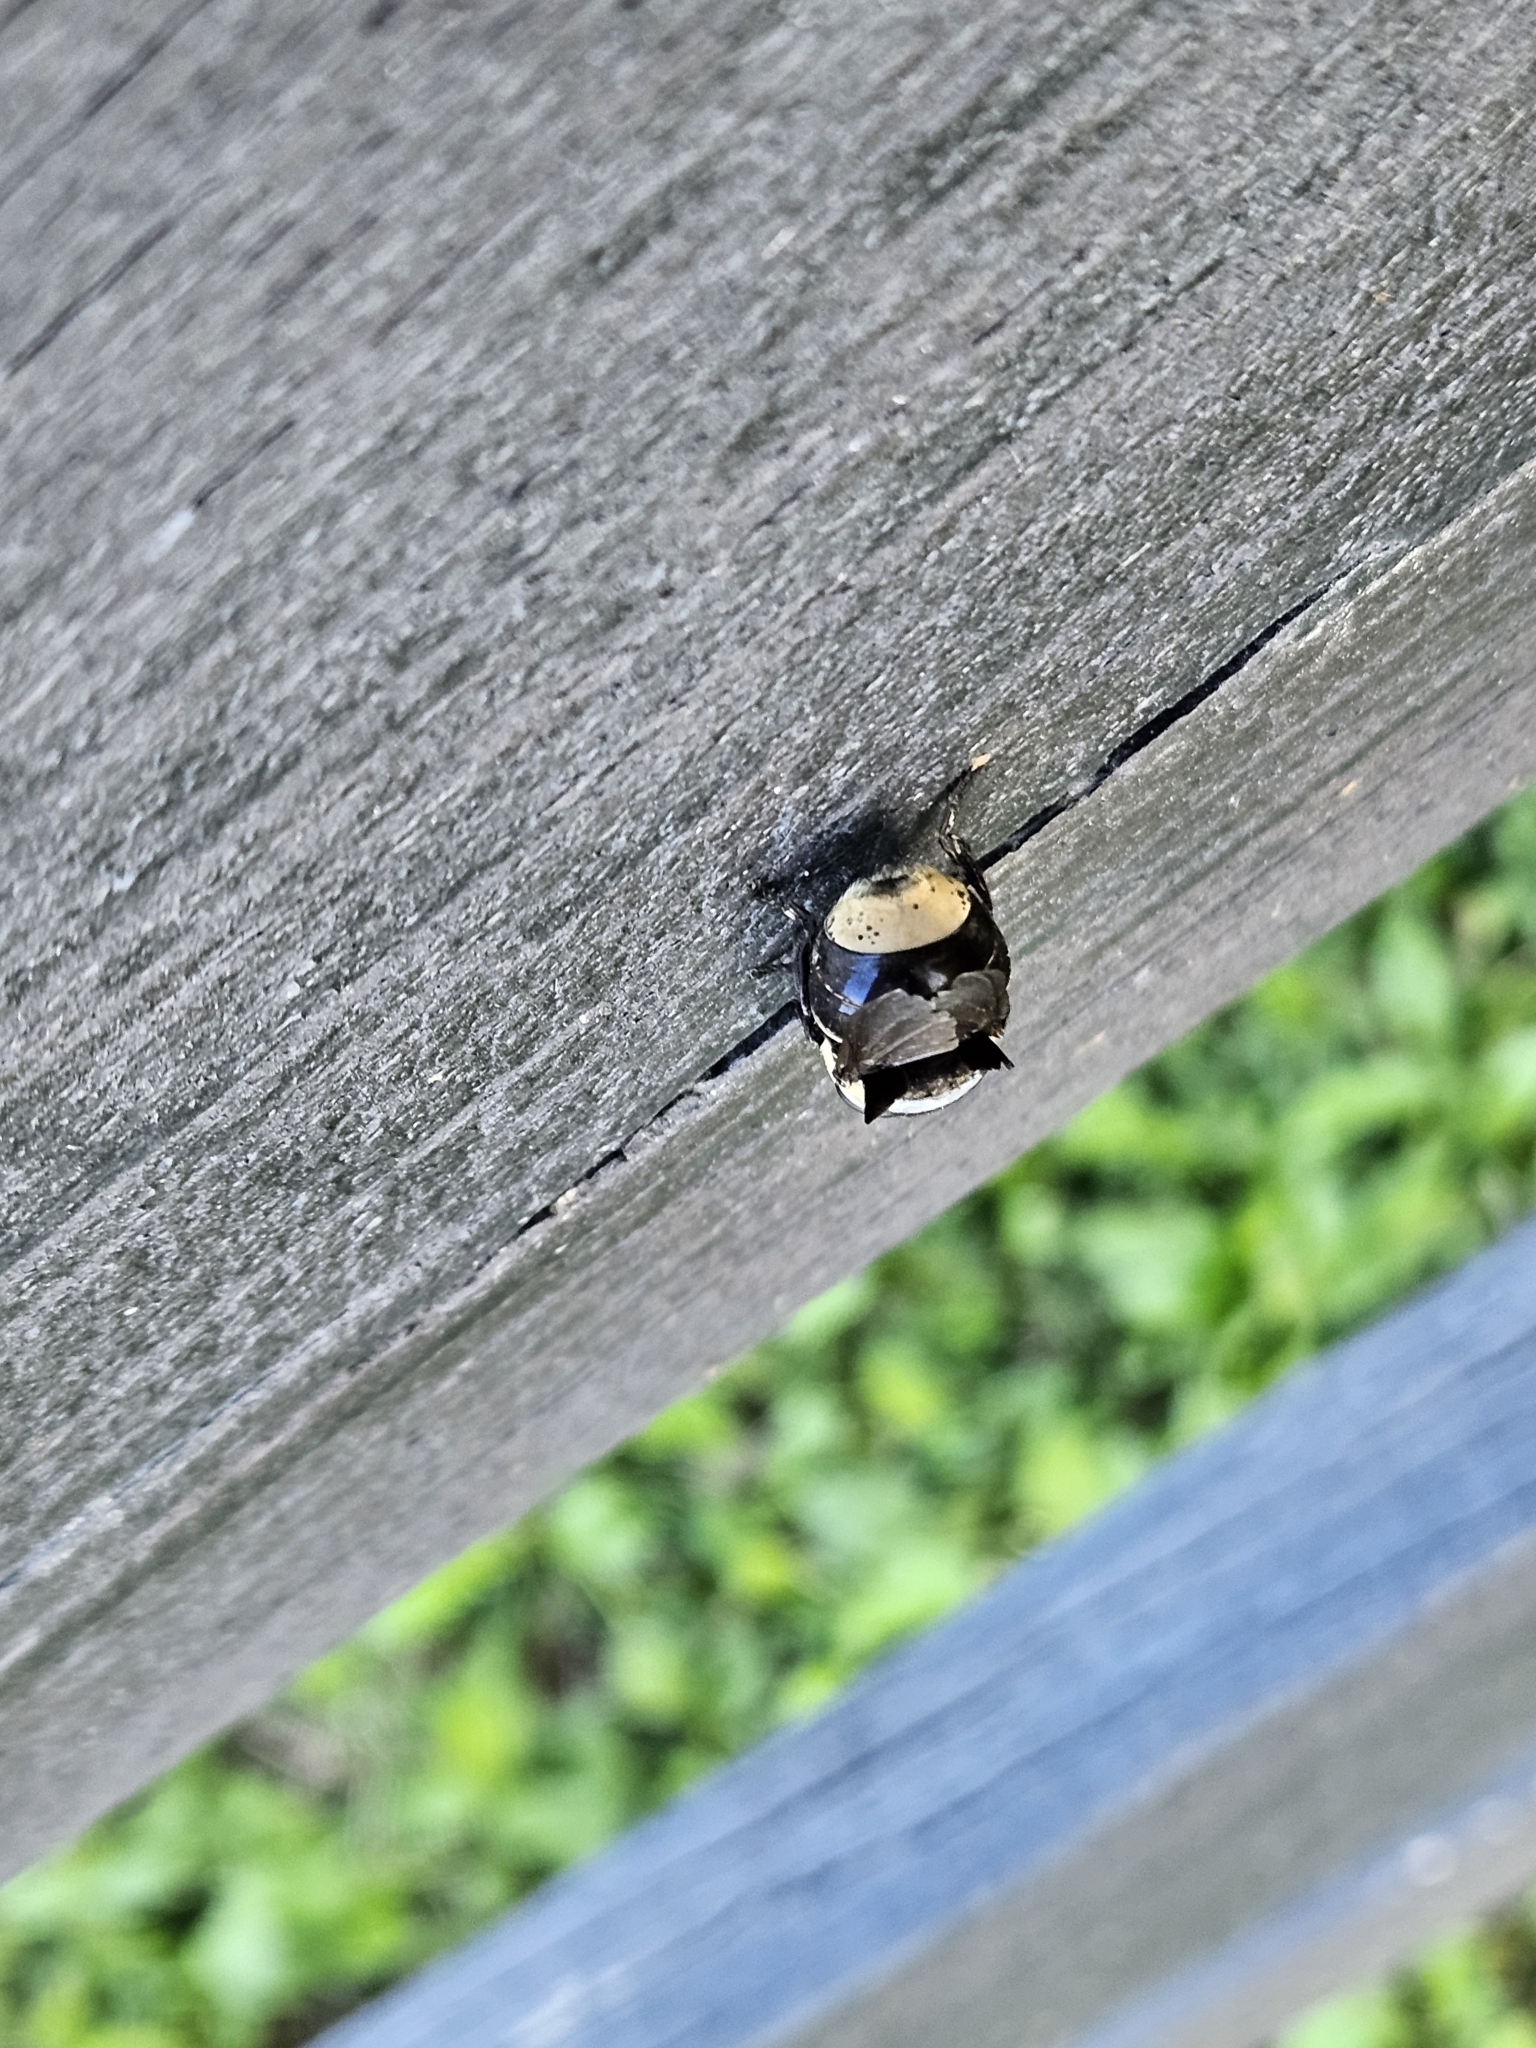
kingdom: Animalia
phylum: Arthropoda
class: Insecta
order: Diptera
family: Oestridae
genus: Cuterebra
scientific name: Cuterebra fontinella
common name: Mouse bot fly
